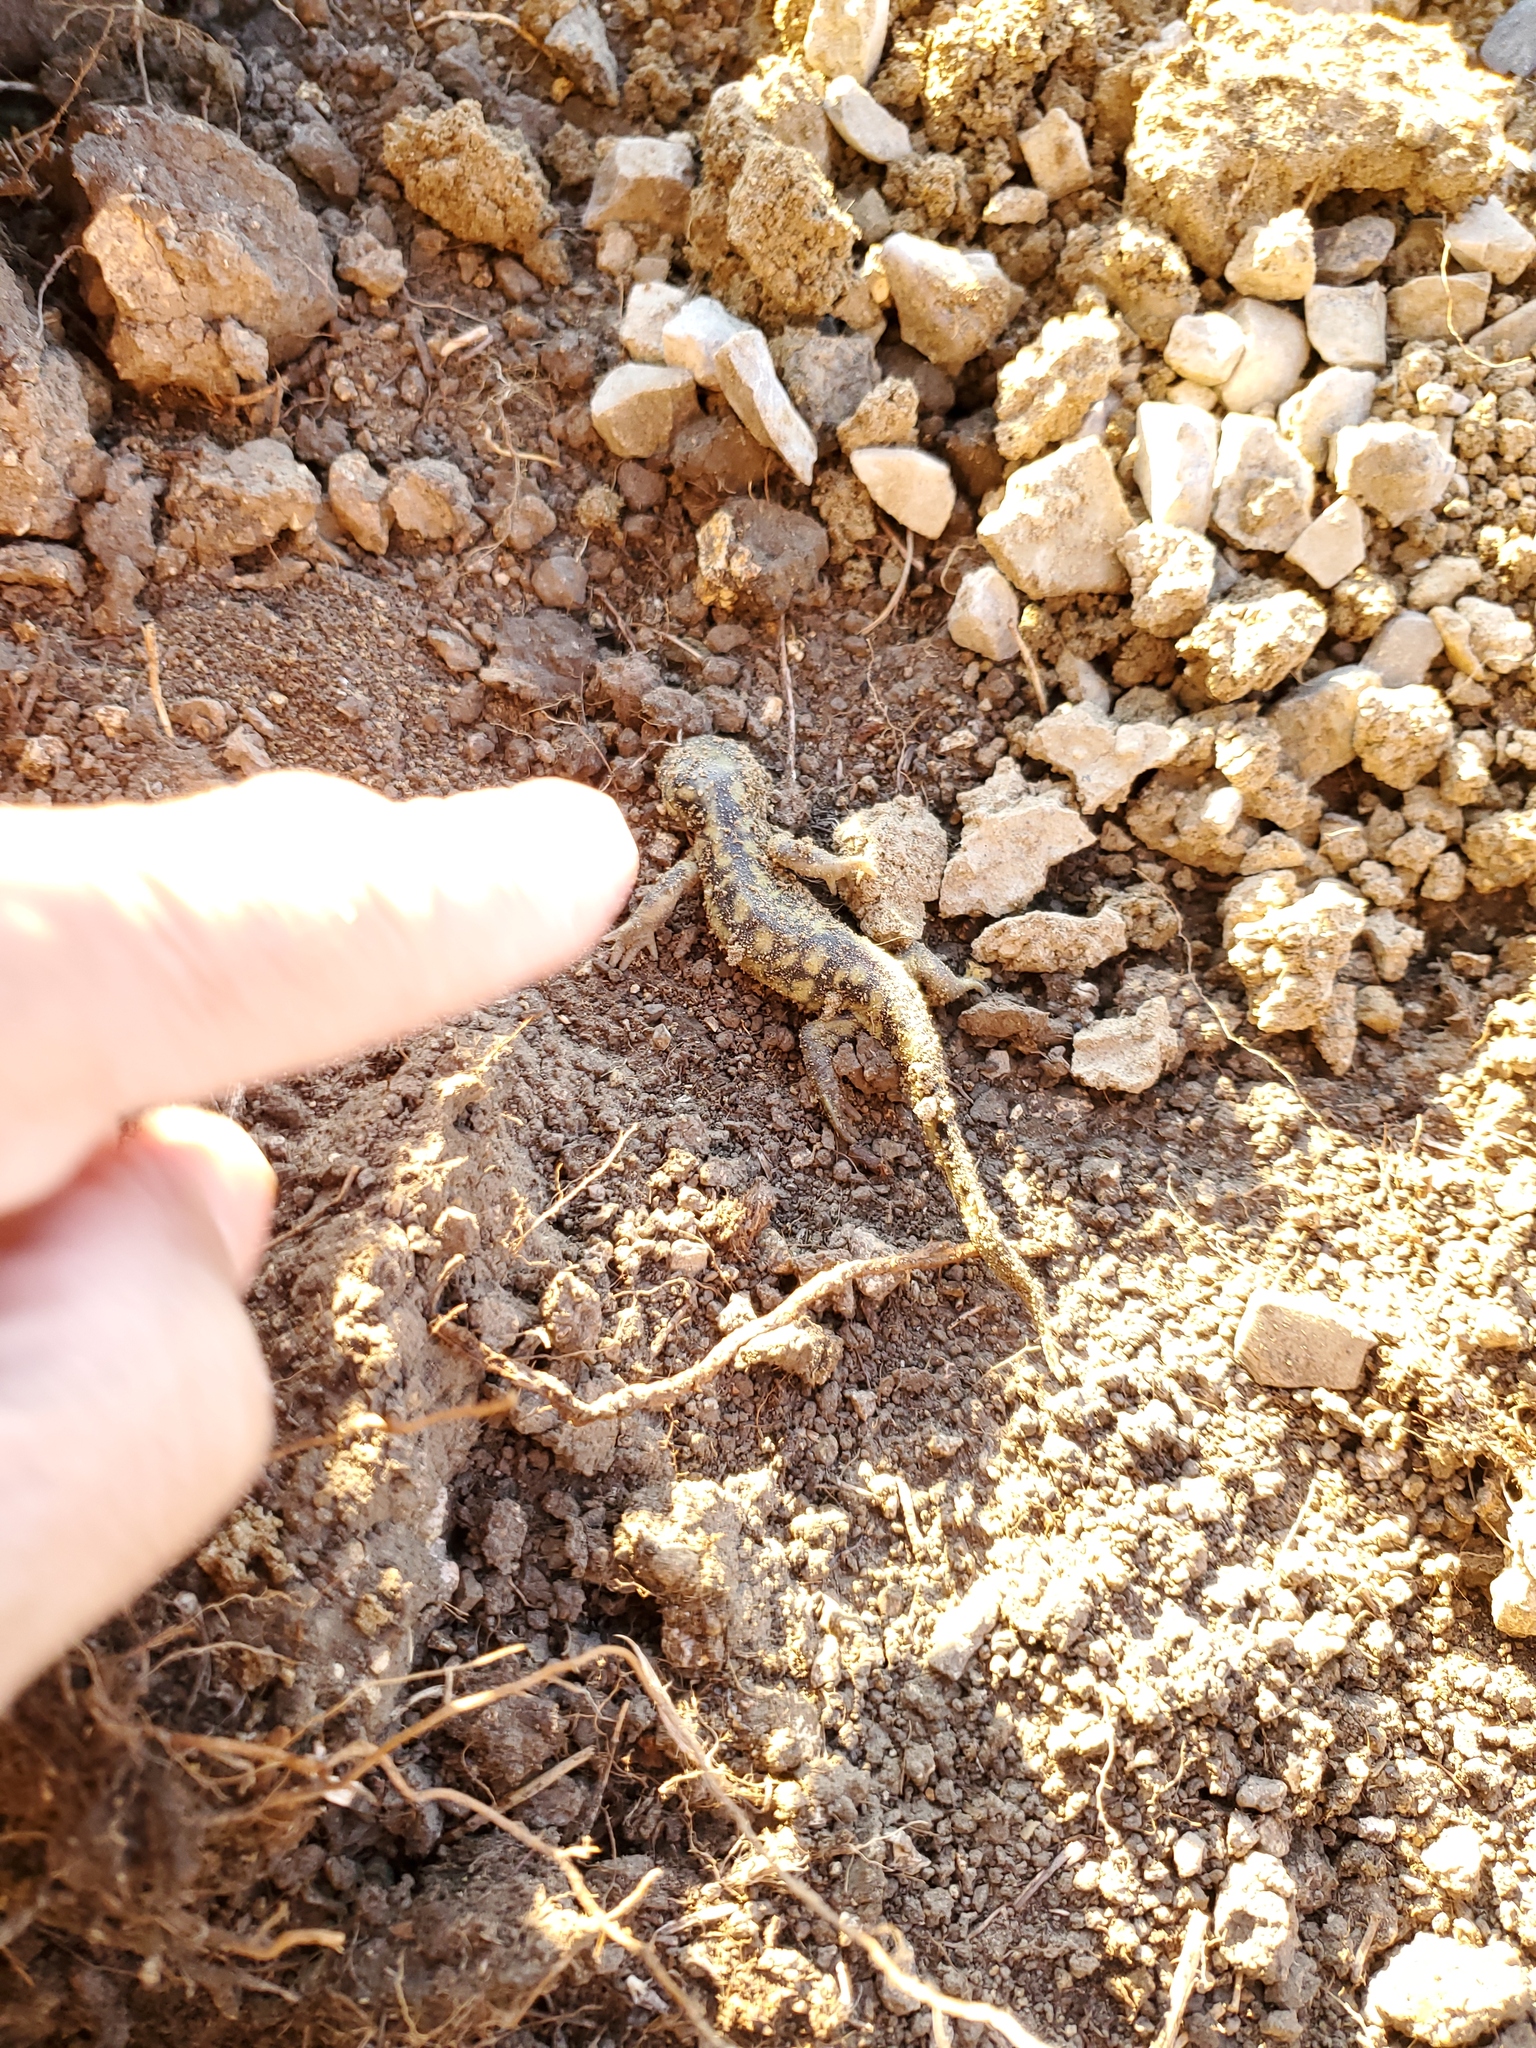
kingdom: Animalia
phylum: Chordata
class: Amphibia
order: Caudata
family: Ambystomatidae
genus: Ambystoma
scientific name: Ambystoma mavortium
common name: Western tiger salamander
